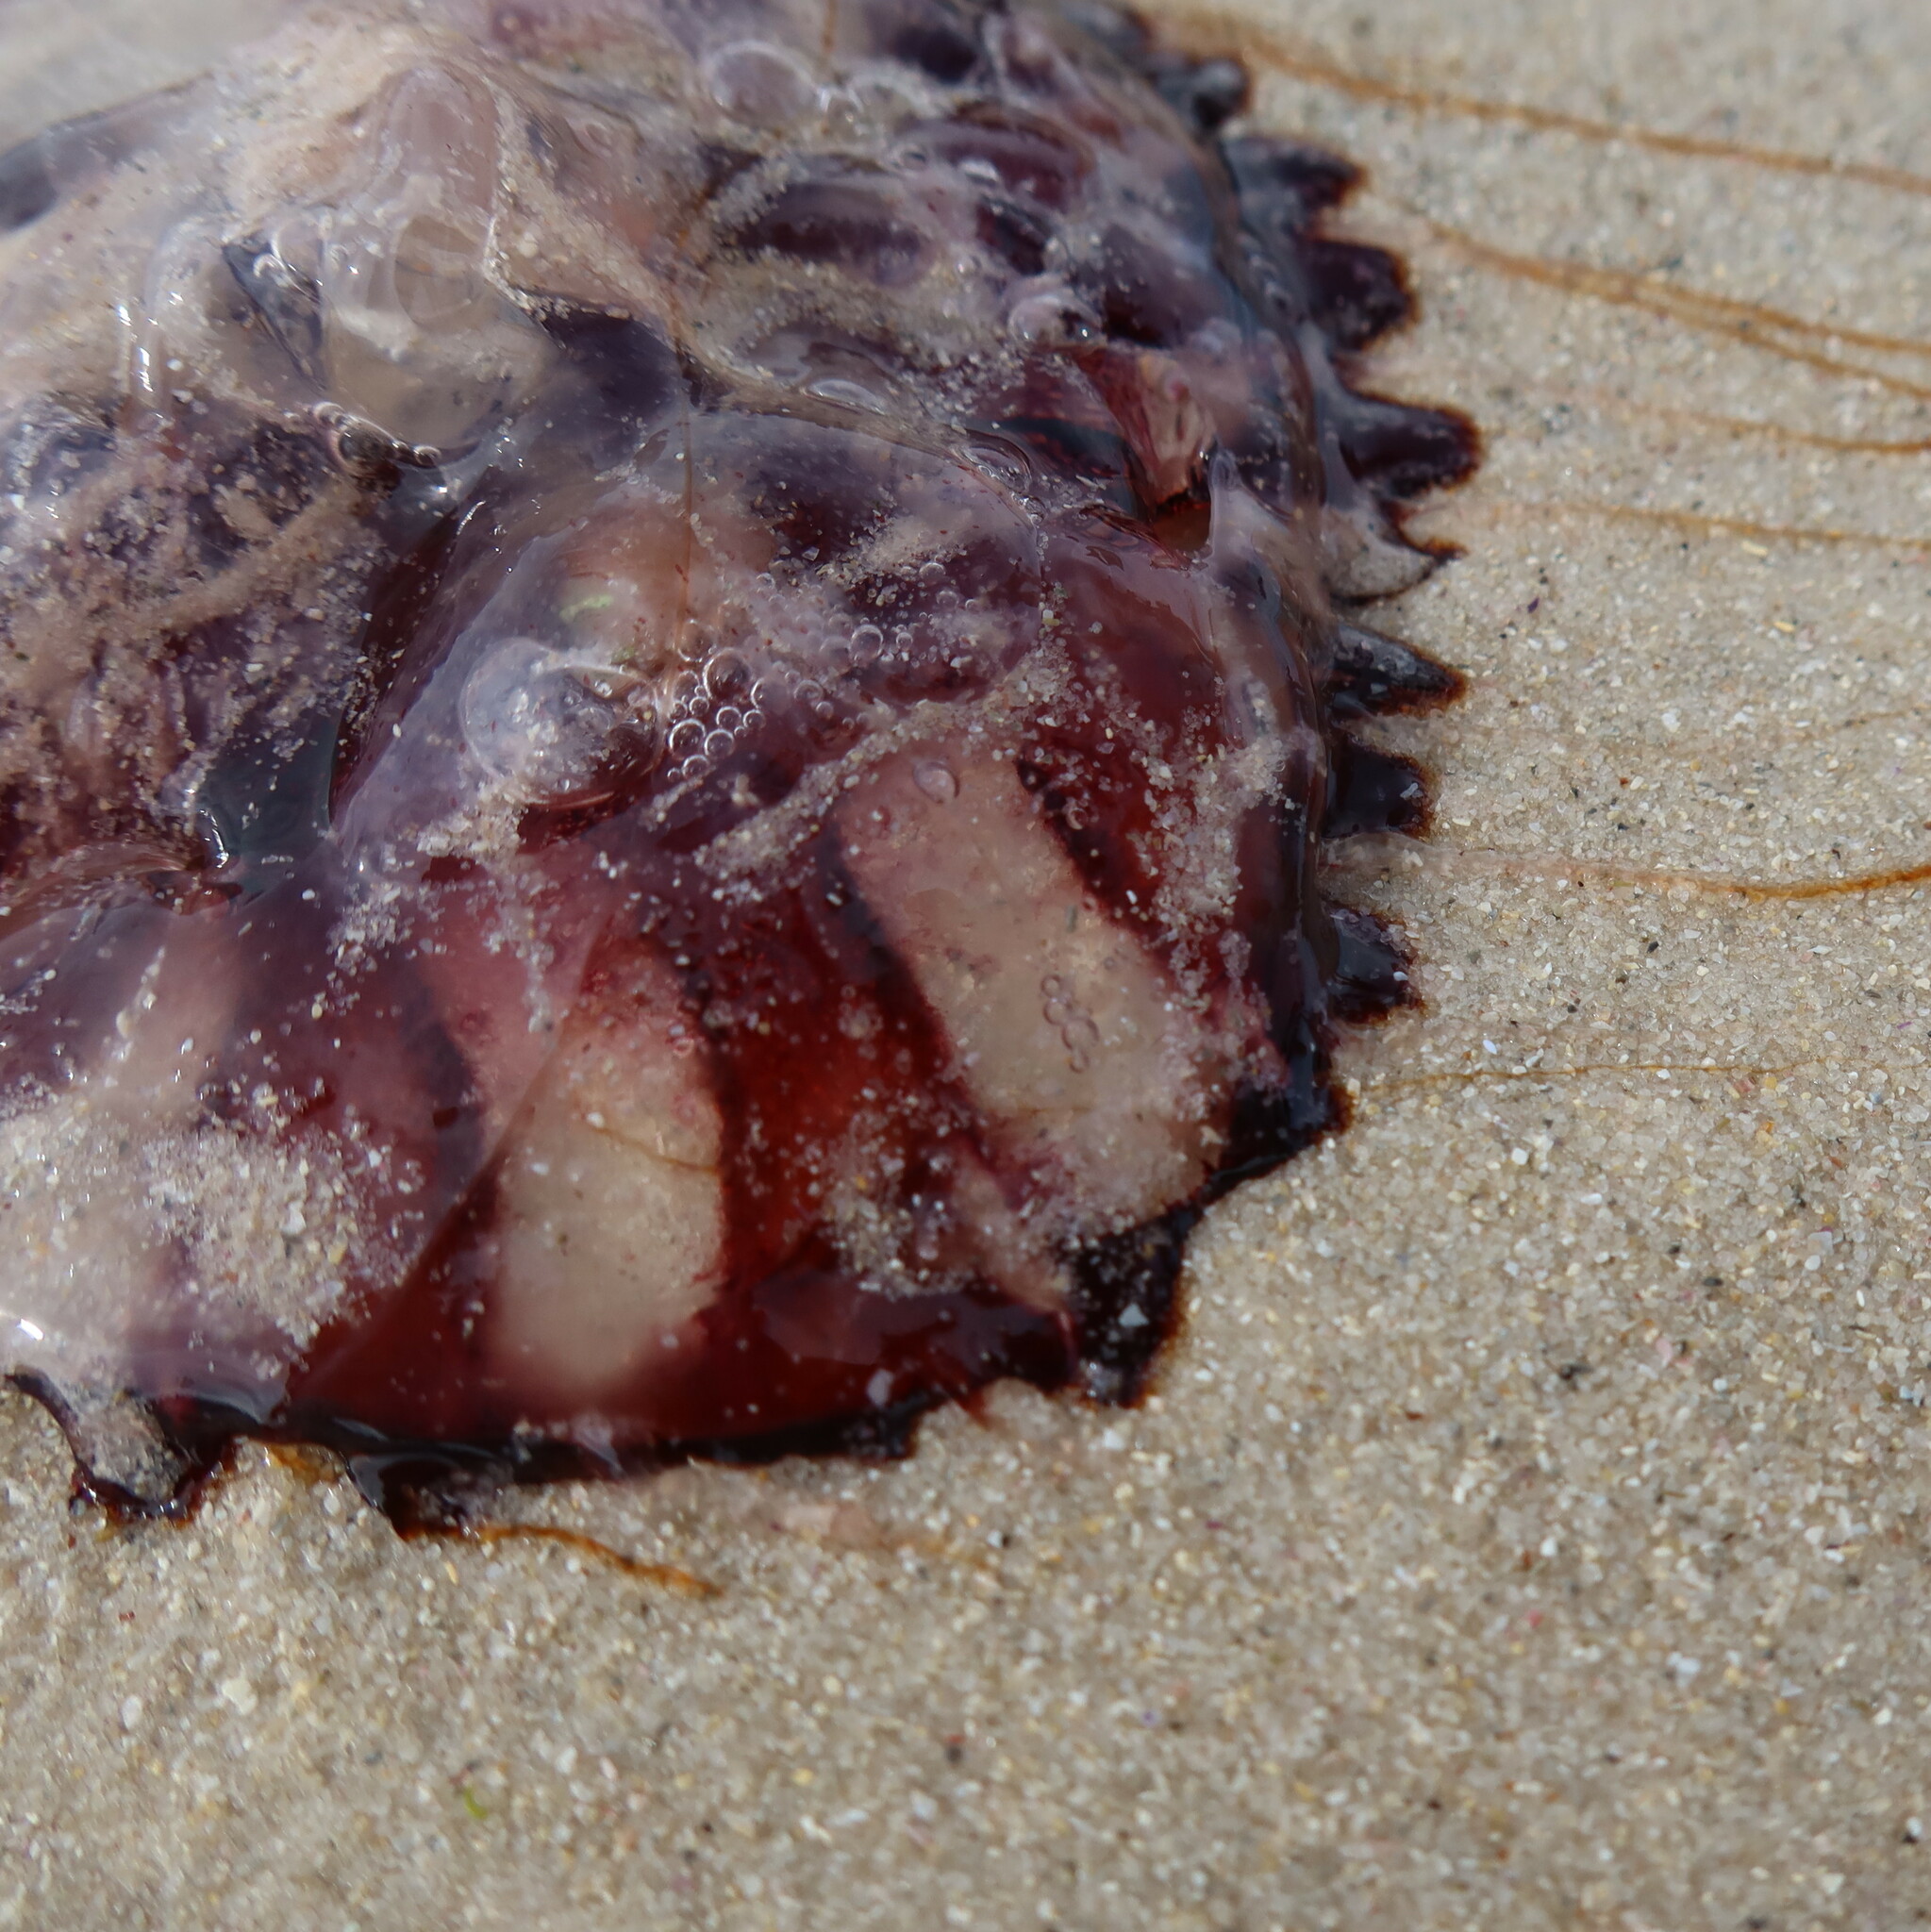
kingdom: Animalia
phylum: Cnidaria
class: Scyphozoa
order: Semaeostomeae
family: Pelagiidae
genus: Chrysaora
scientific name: Chrysaora agulhensis
